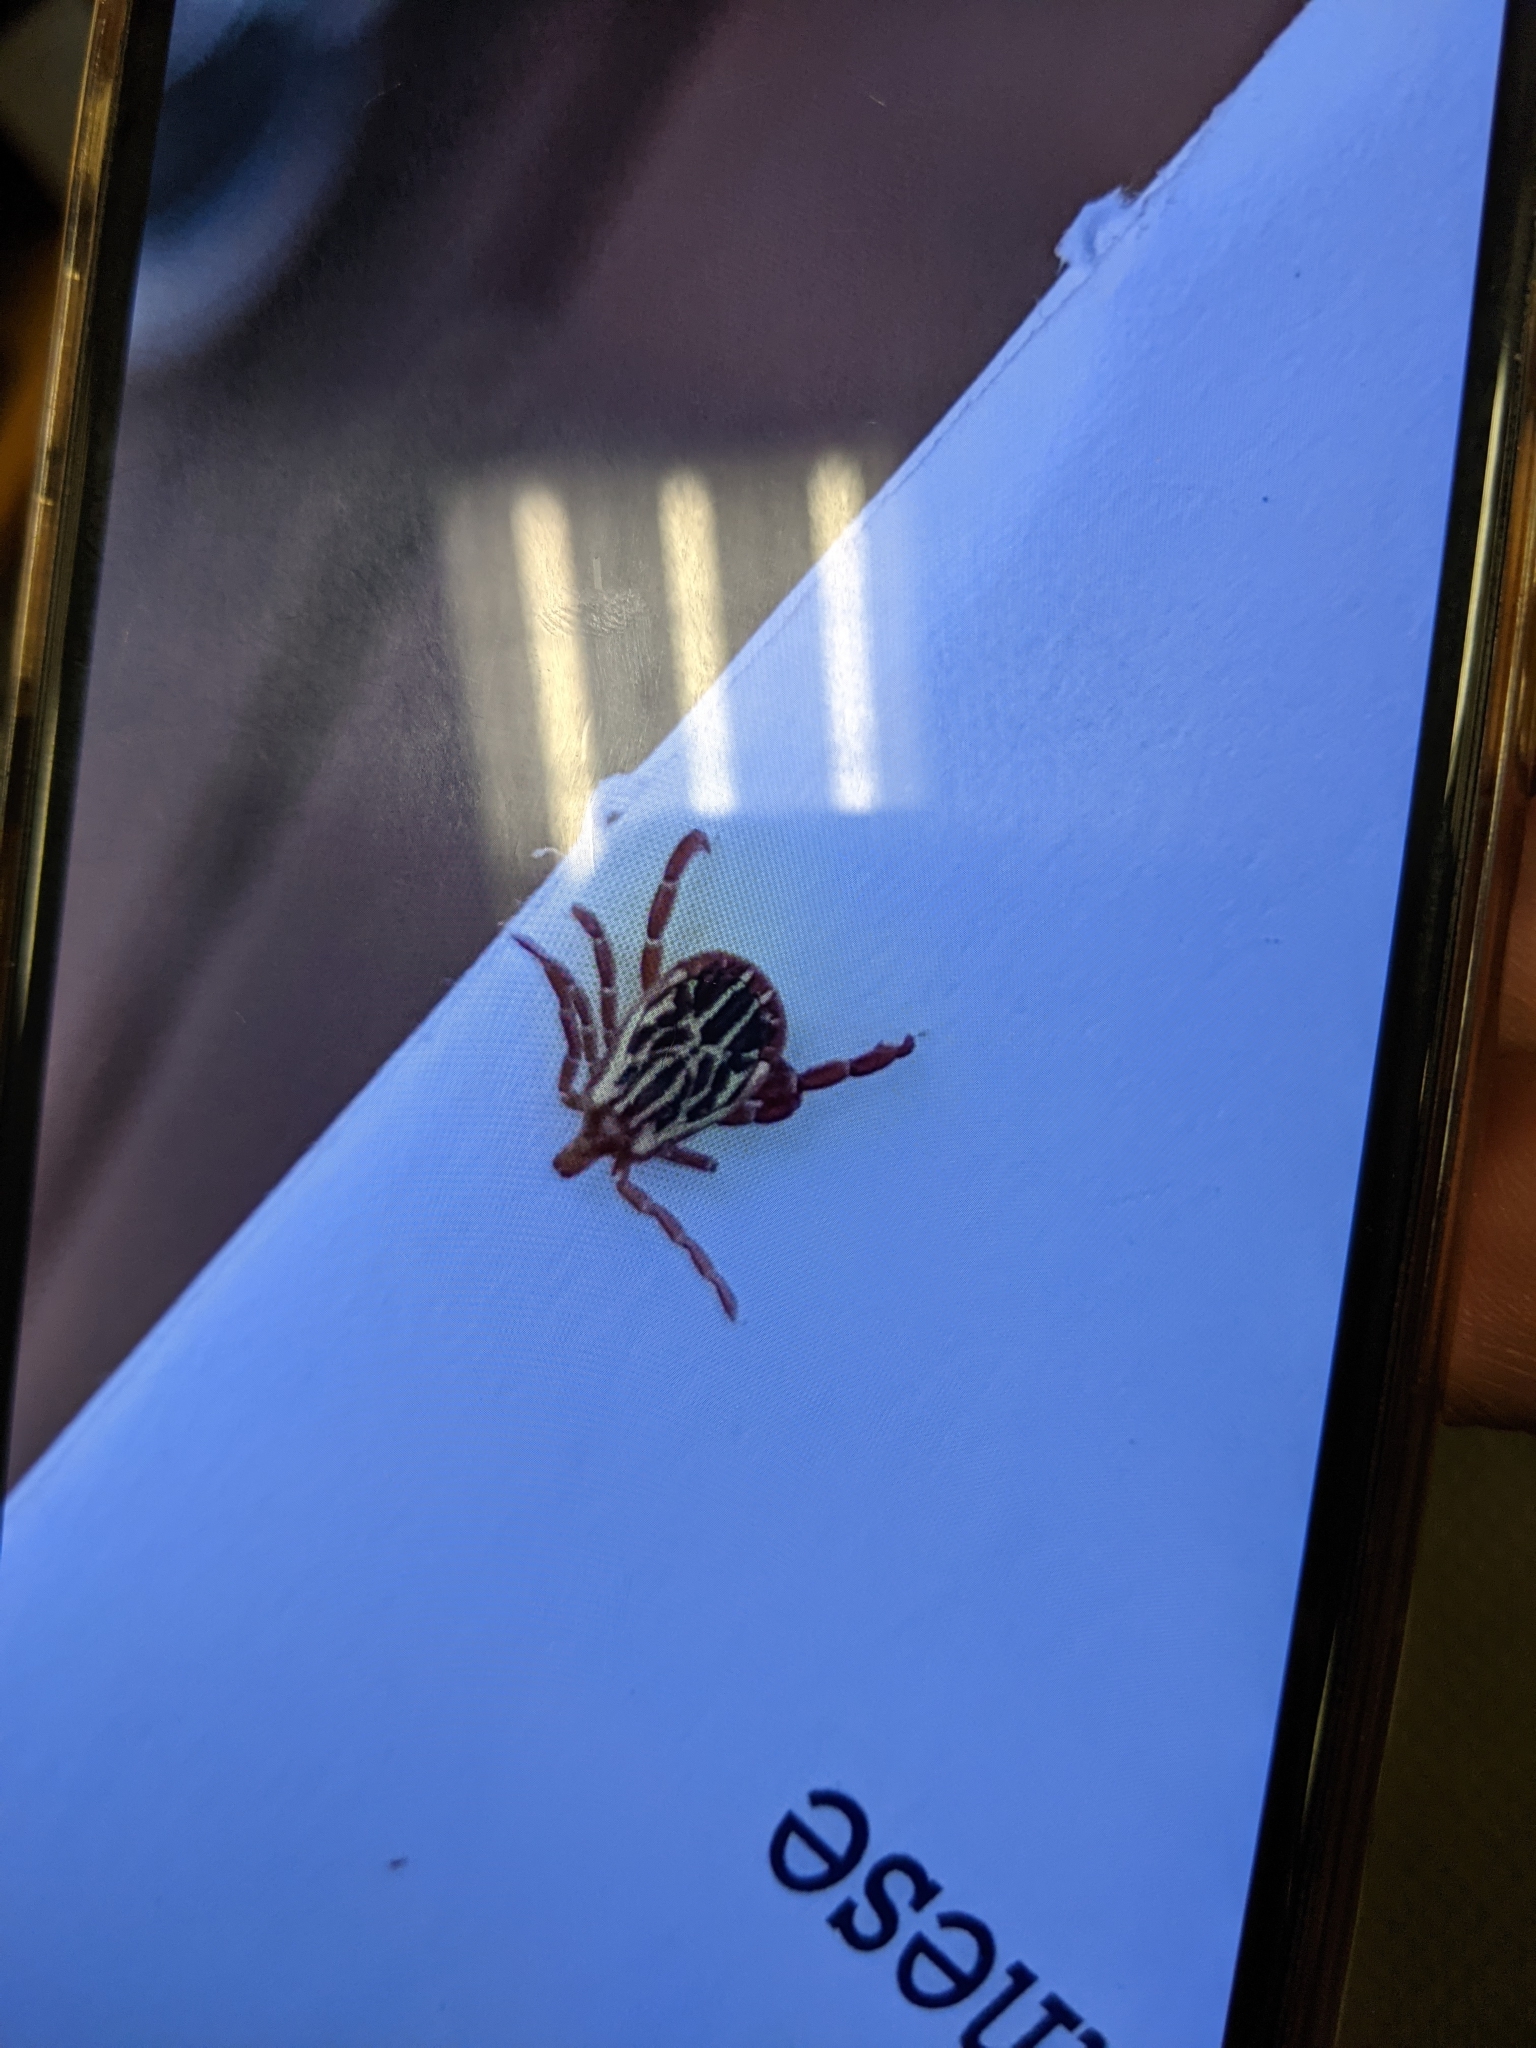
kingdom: Animalia
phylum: Arthropoda
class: Arachnida
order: Ixodida
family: Ixodidae
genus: Amblyomma
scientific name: Amblyomma maculatum
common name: Gulf coast tick
